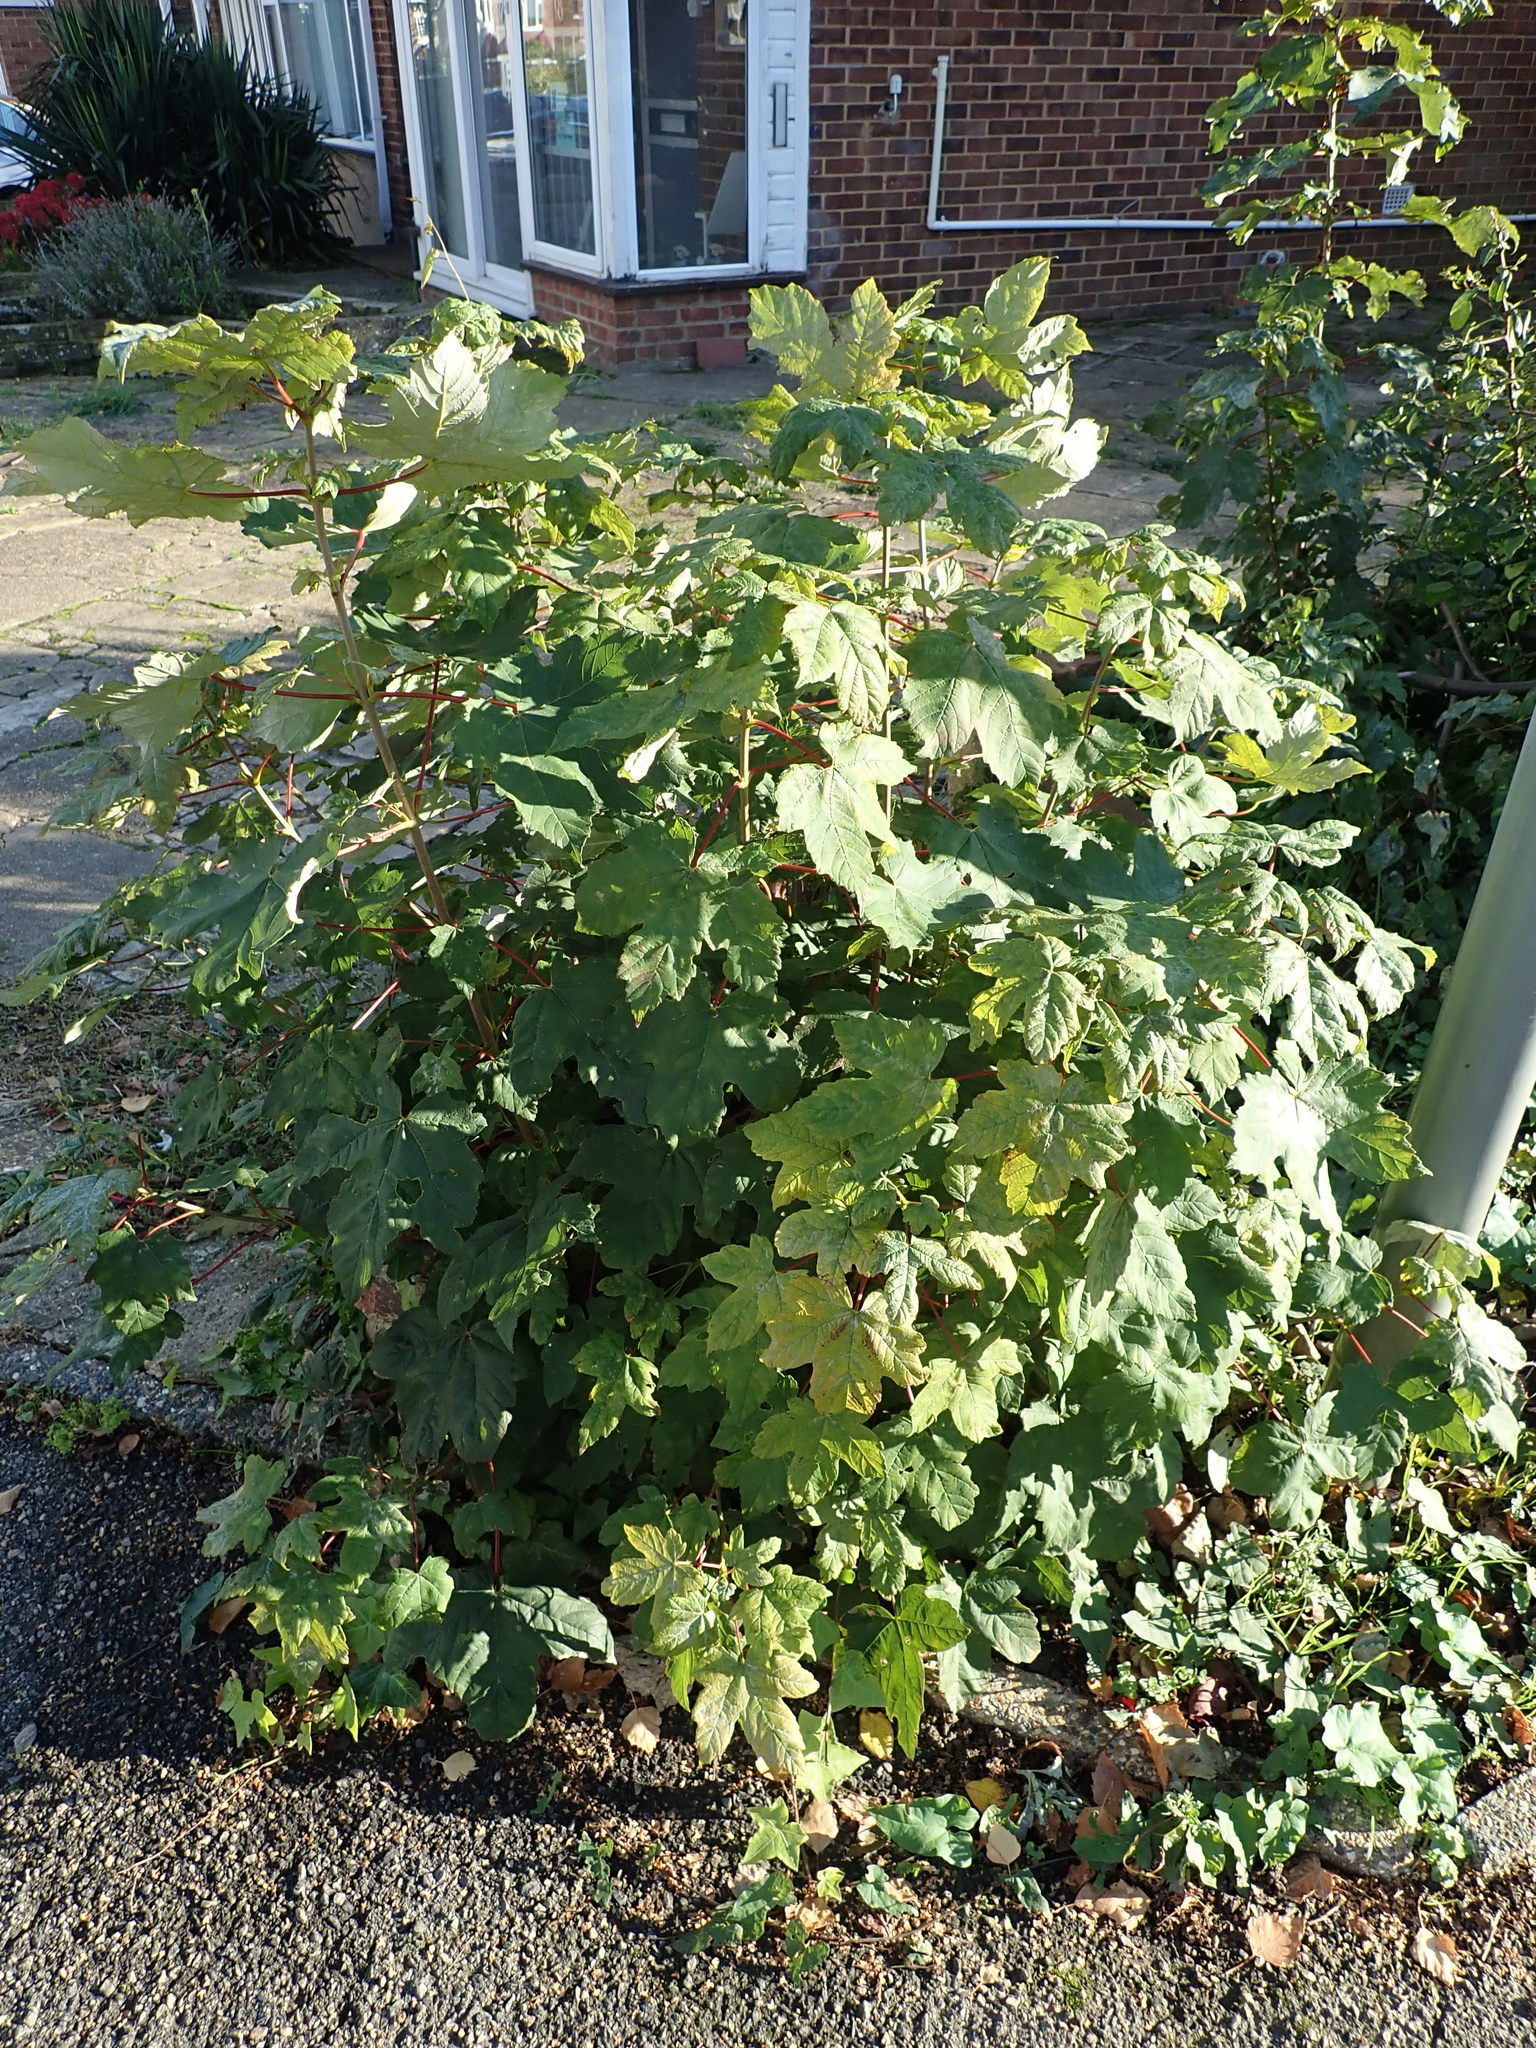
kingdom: Plantae
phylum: Tracheophyta
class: Magnoliopsida
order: Sapindales
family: Sapindaceae
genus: Acer
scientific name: Acer pseudoplatanus
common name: Sycamore
